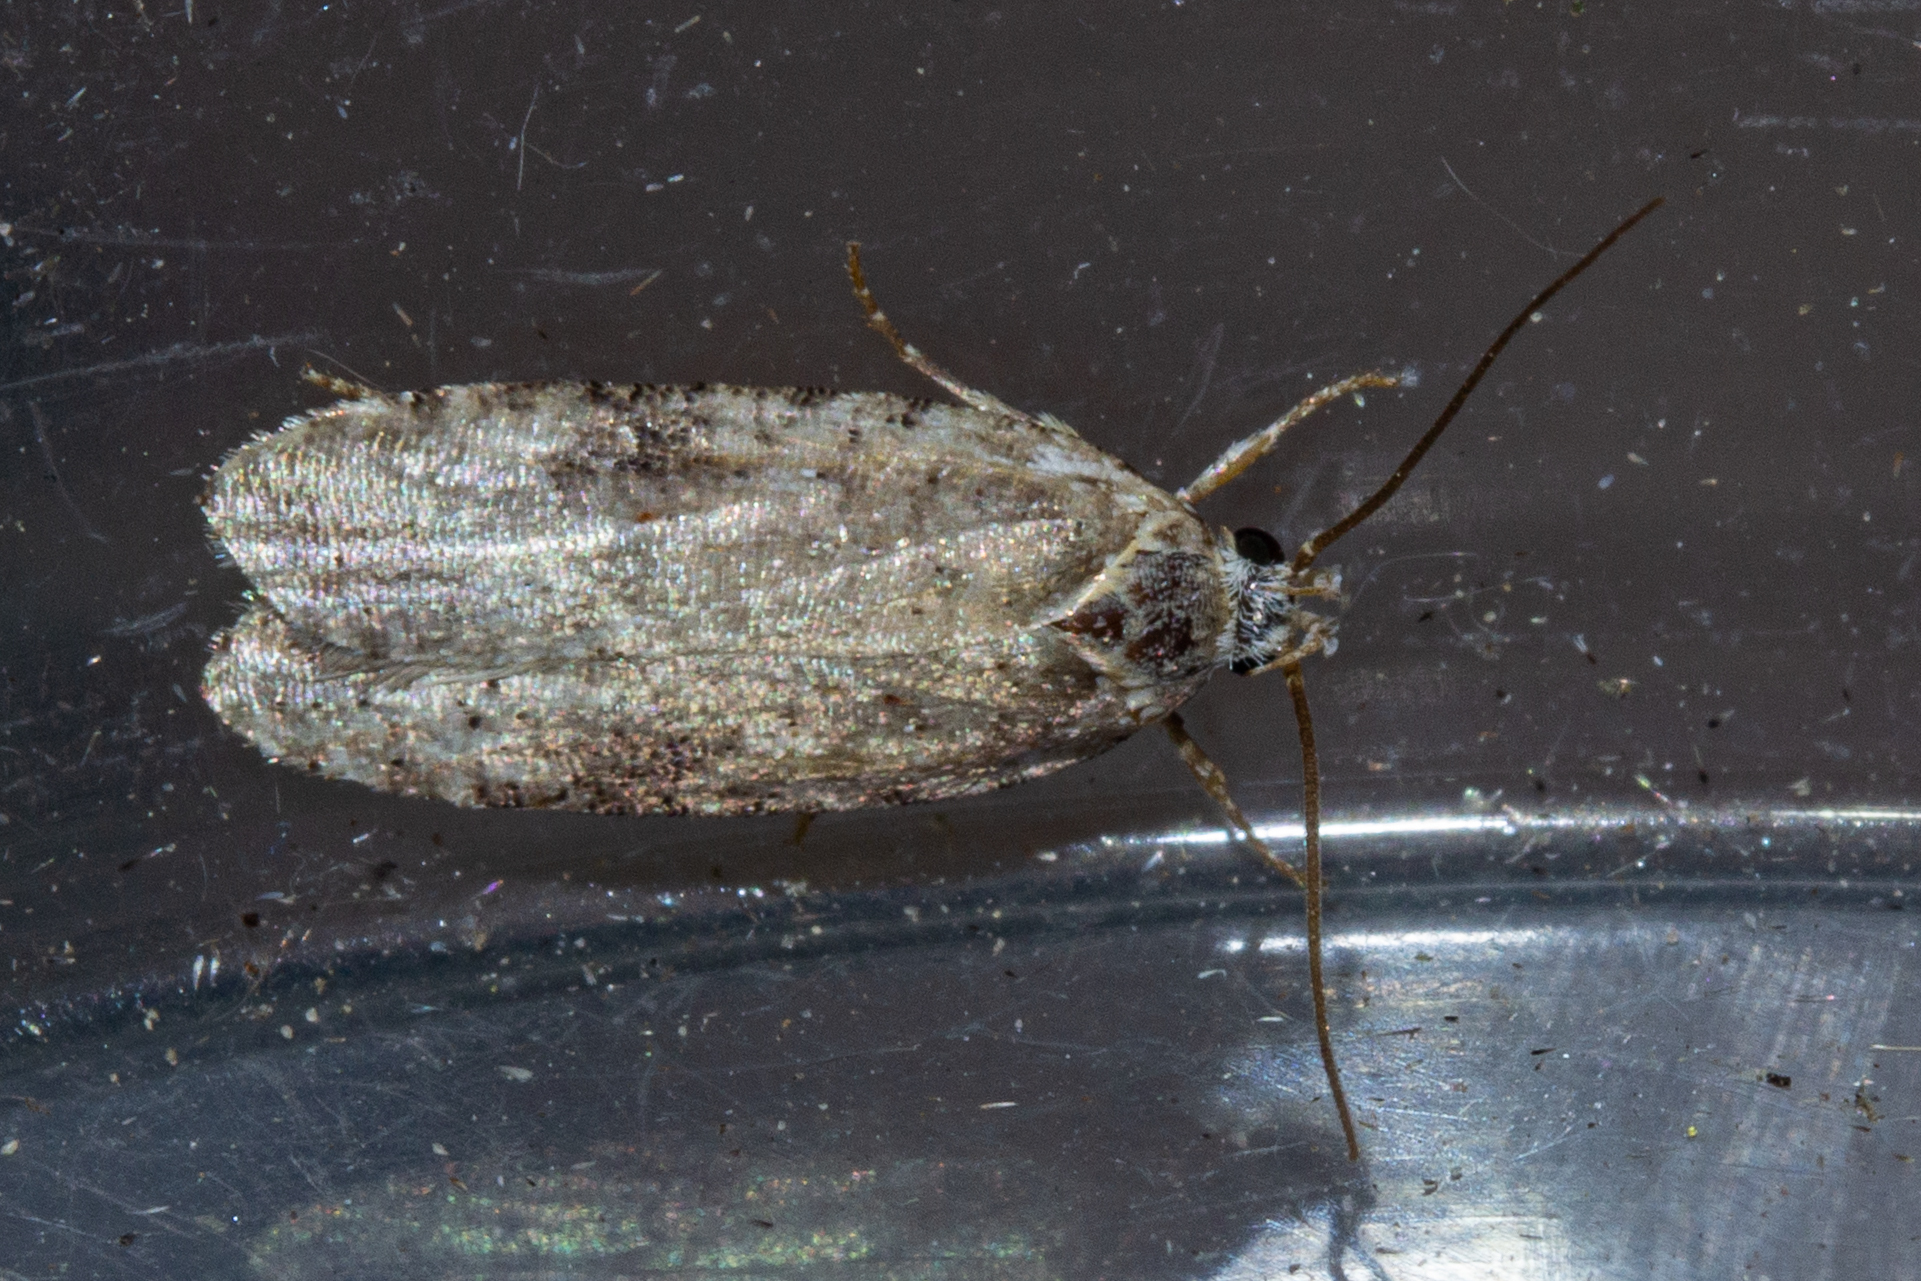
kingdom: Animalia
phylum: Arthropoda
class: Insecta
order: Lepidoptera
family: Depressariidae
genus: Agonopterix
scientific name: Agonopterix alstroemeriana
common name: Moth
